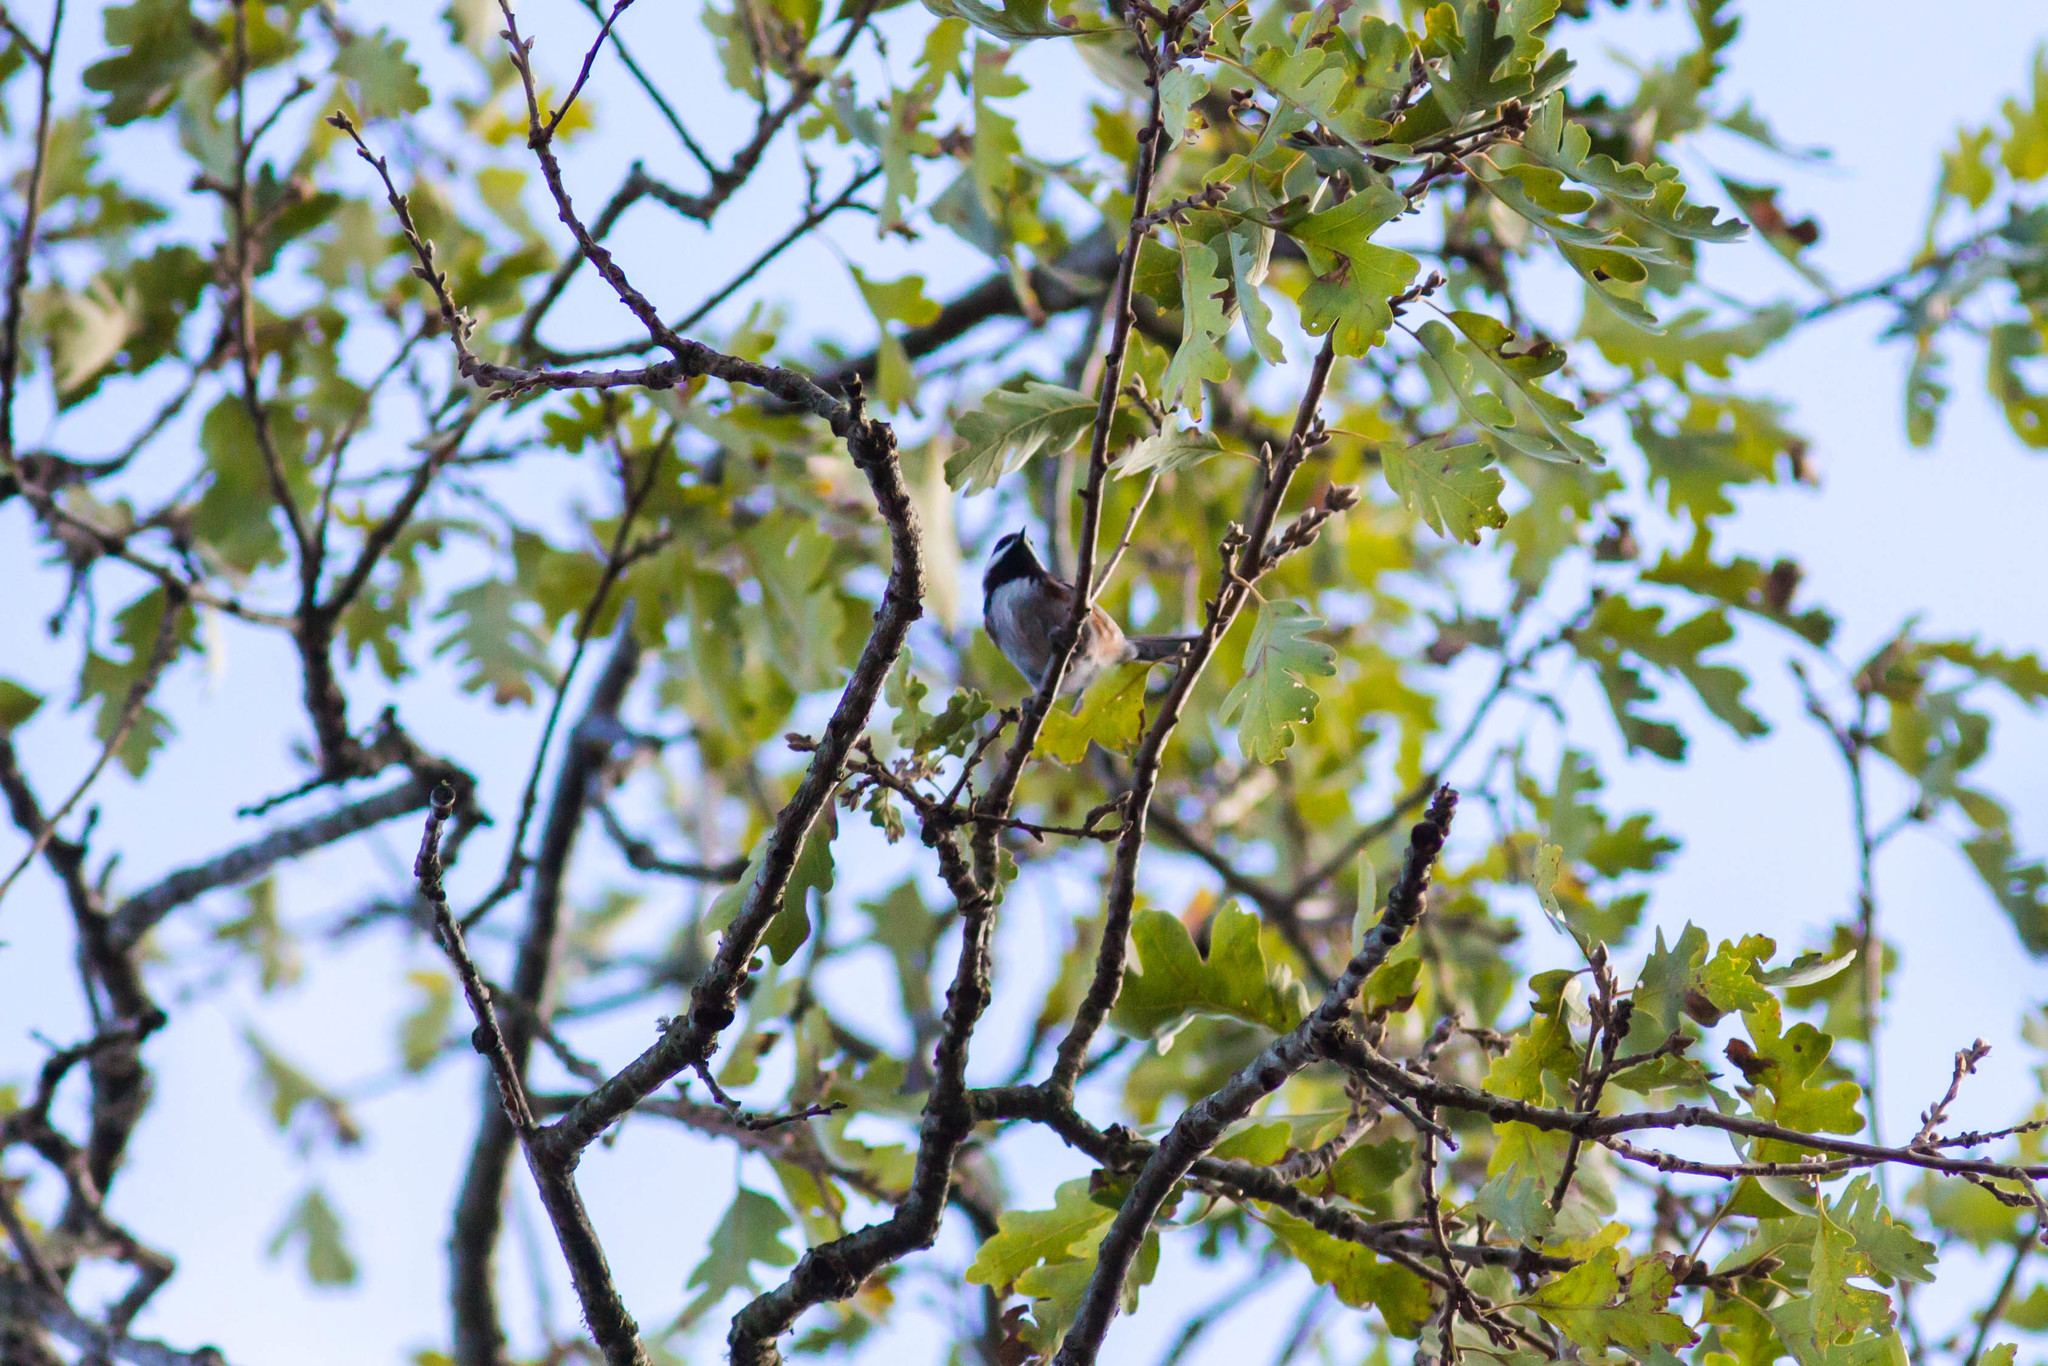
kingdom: Animalia
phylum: Chordata
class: Aves
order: Passeriformes
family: Paridae
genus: Poecile
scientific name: Poecile rufescens
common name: Chestnut-backed chickadee
